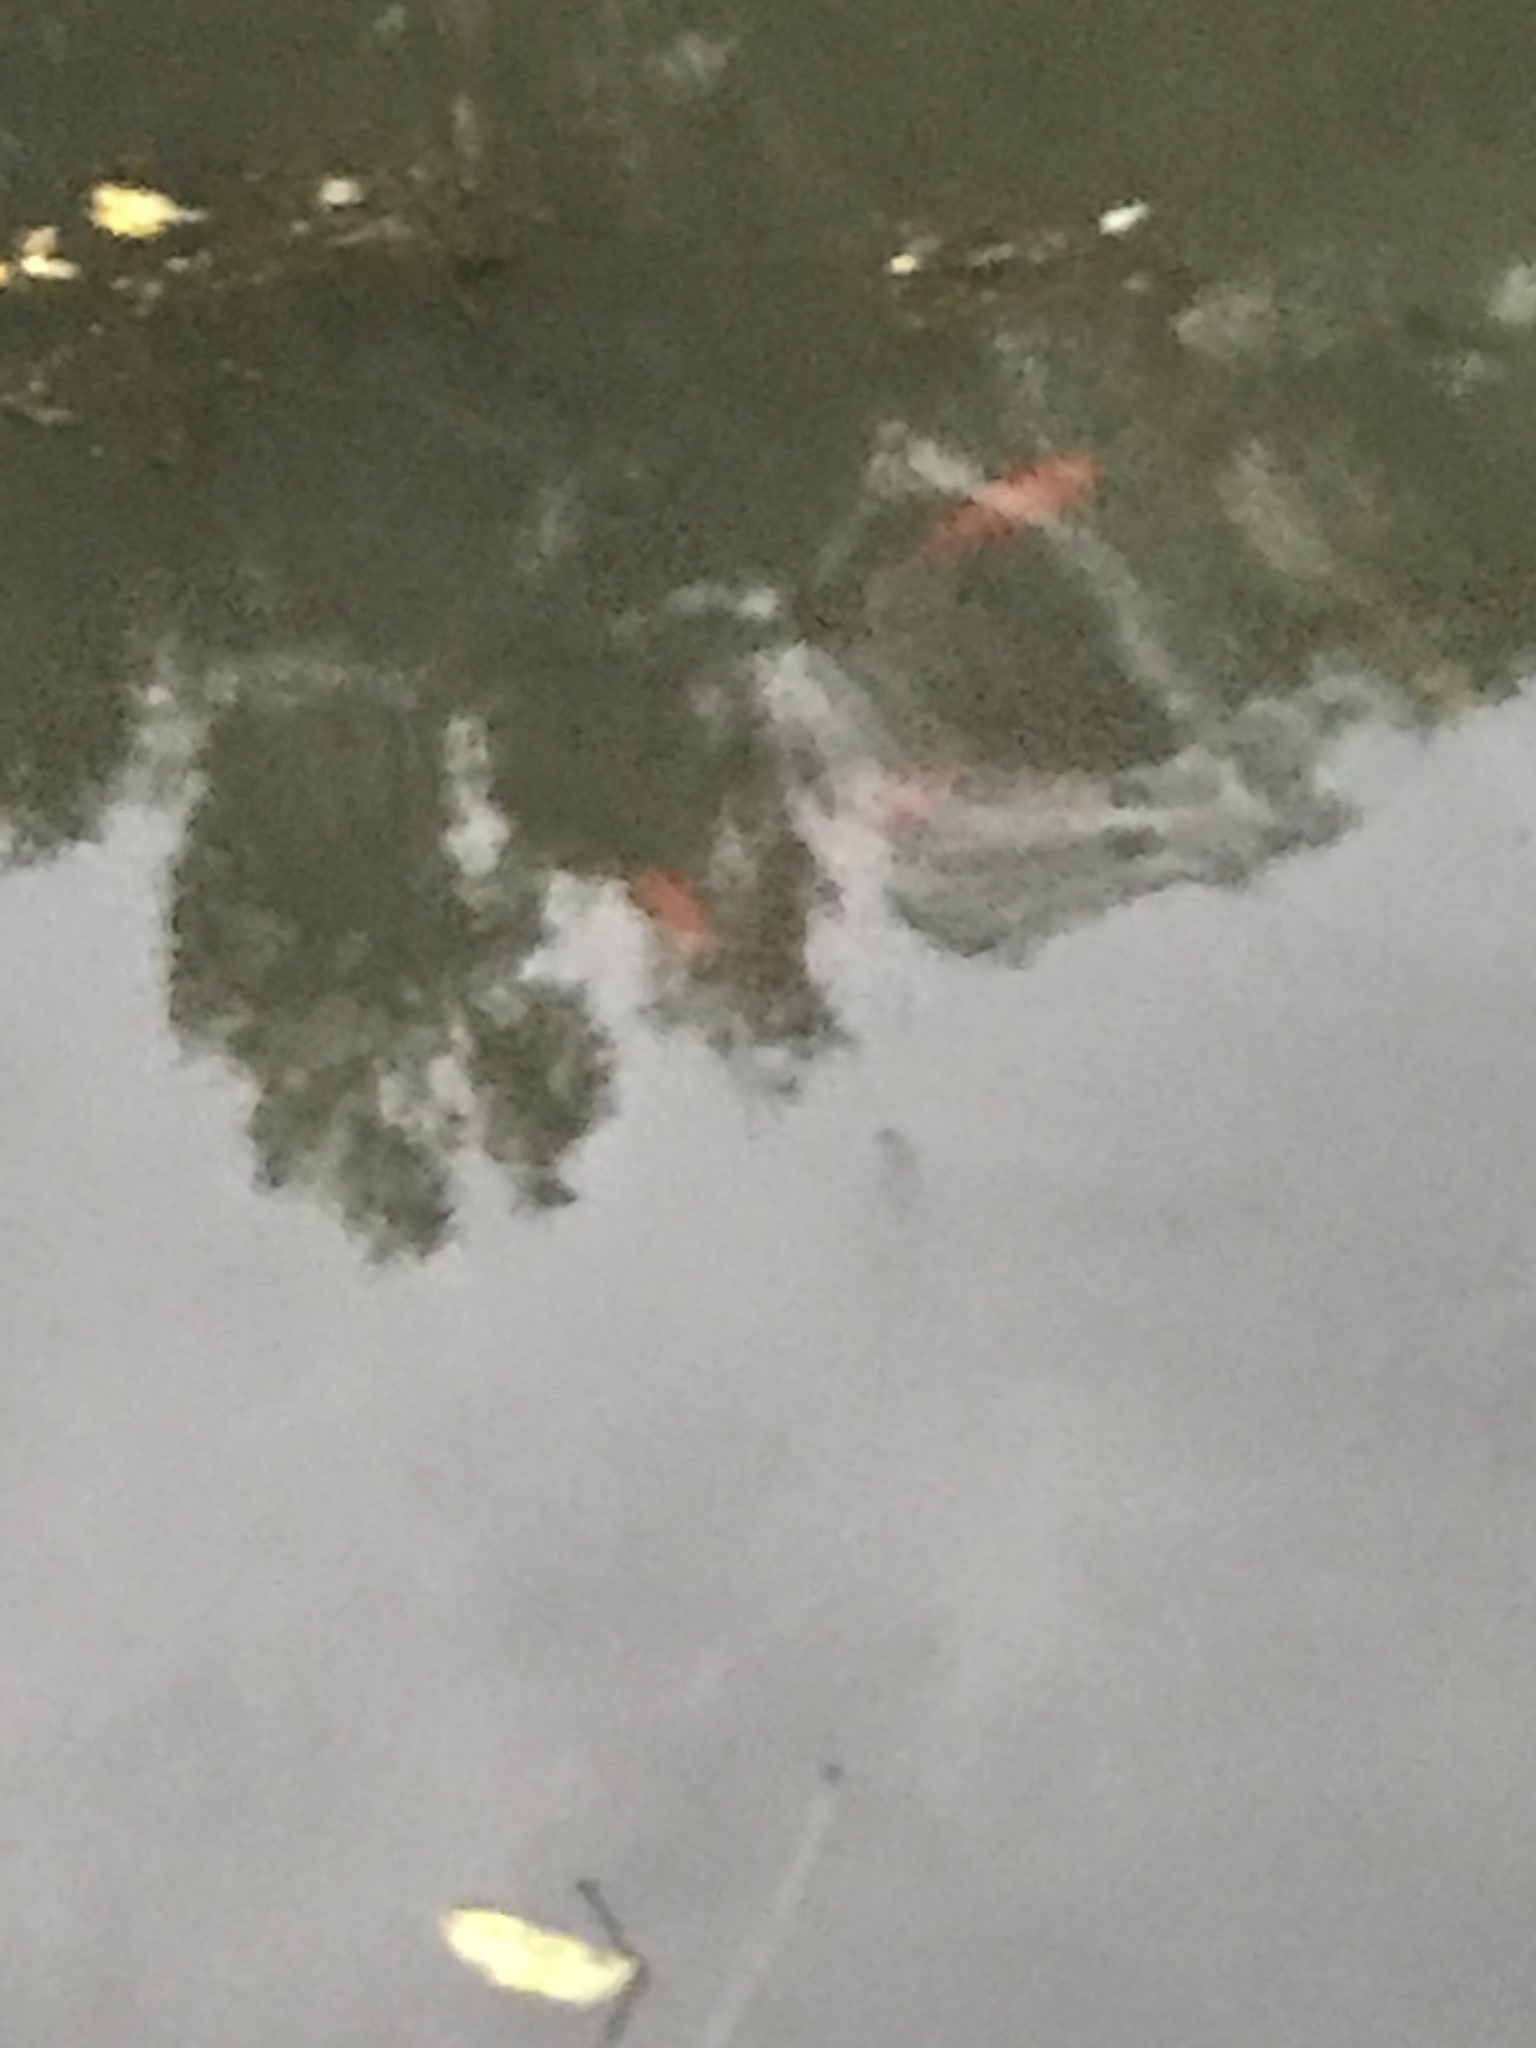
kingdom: Animalia
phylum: Chordata
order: Cypriniformes
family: Cyprinidae
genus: Carassius
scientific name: Carassius auratus
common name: Goldfish
